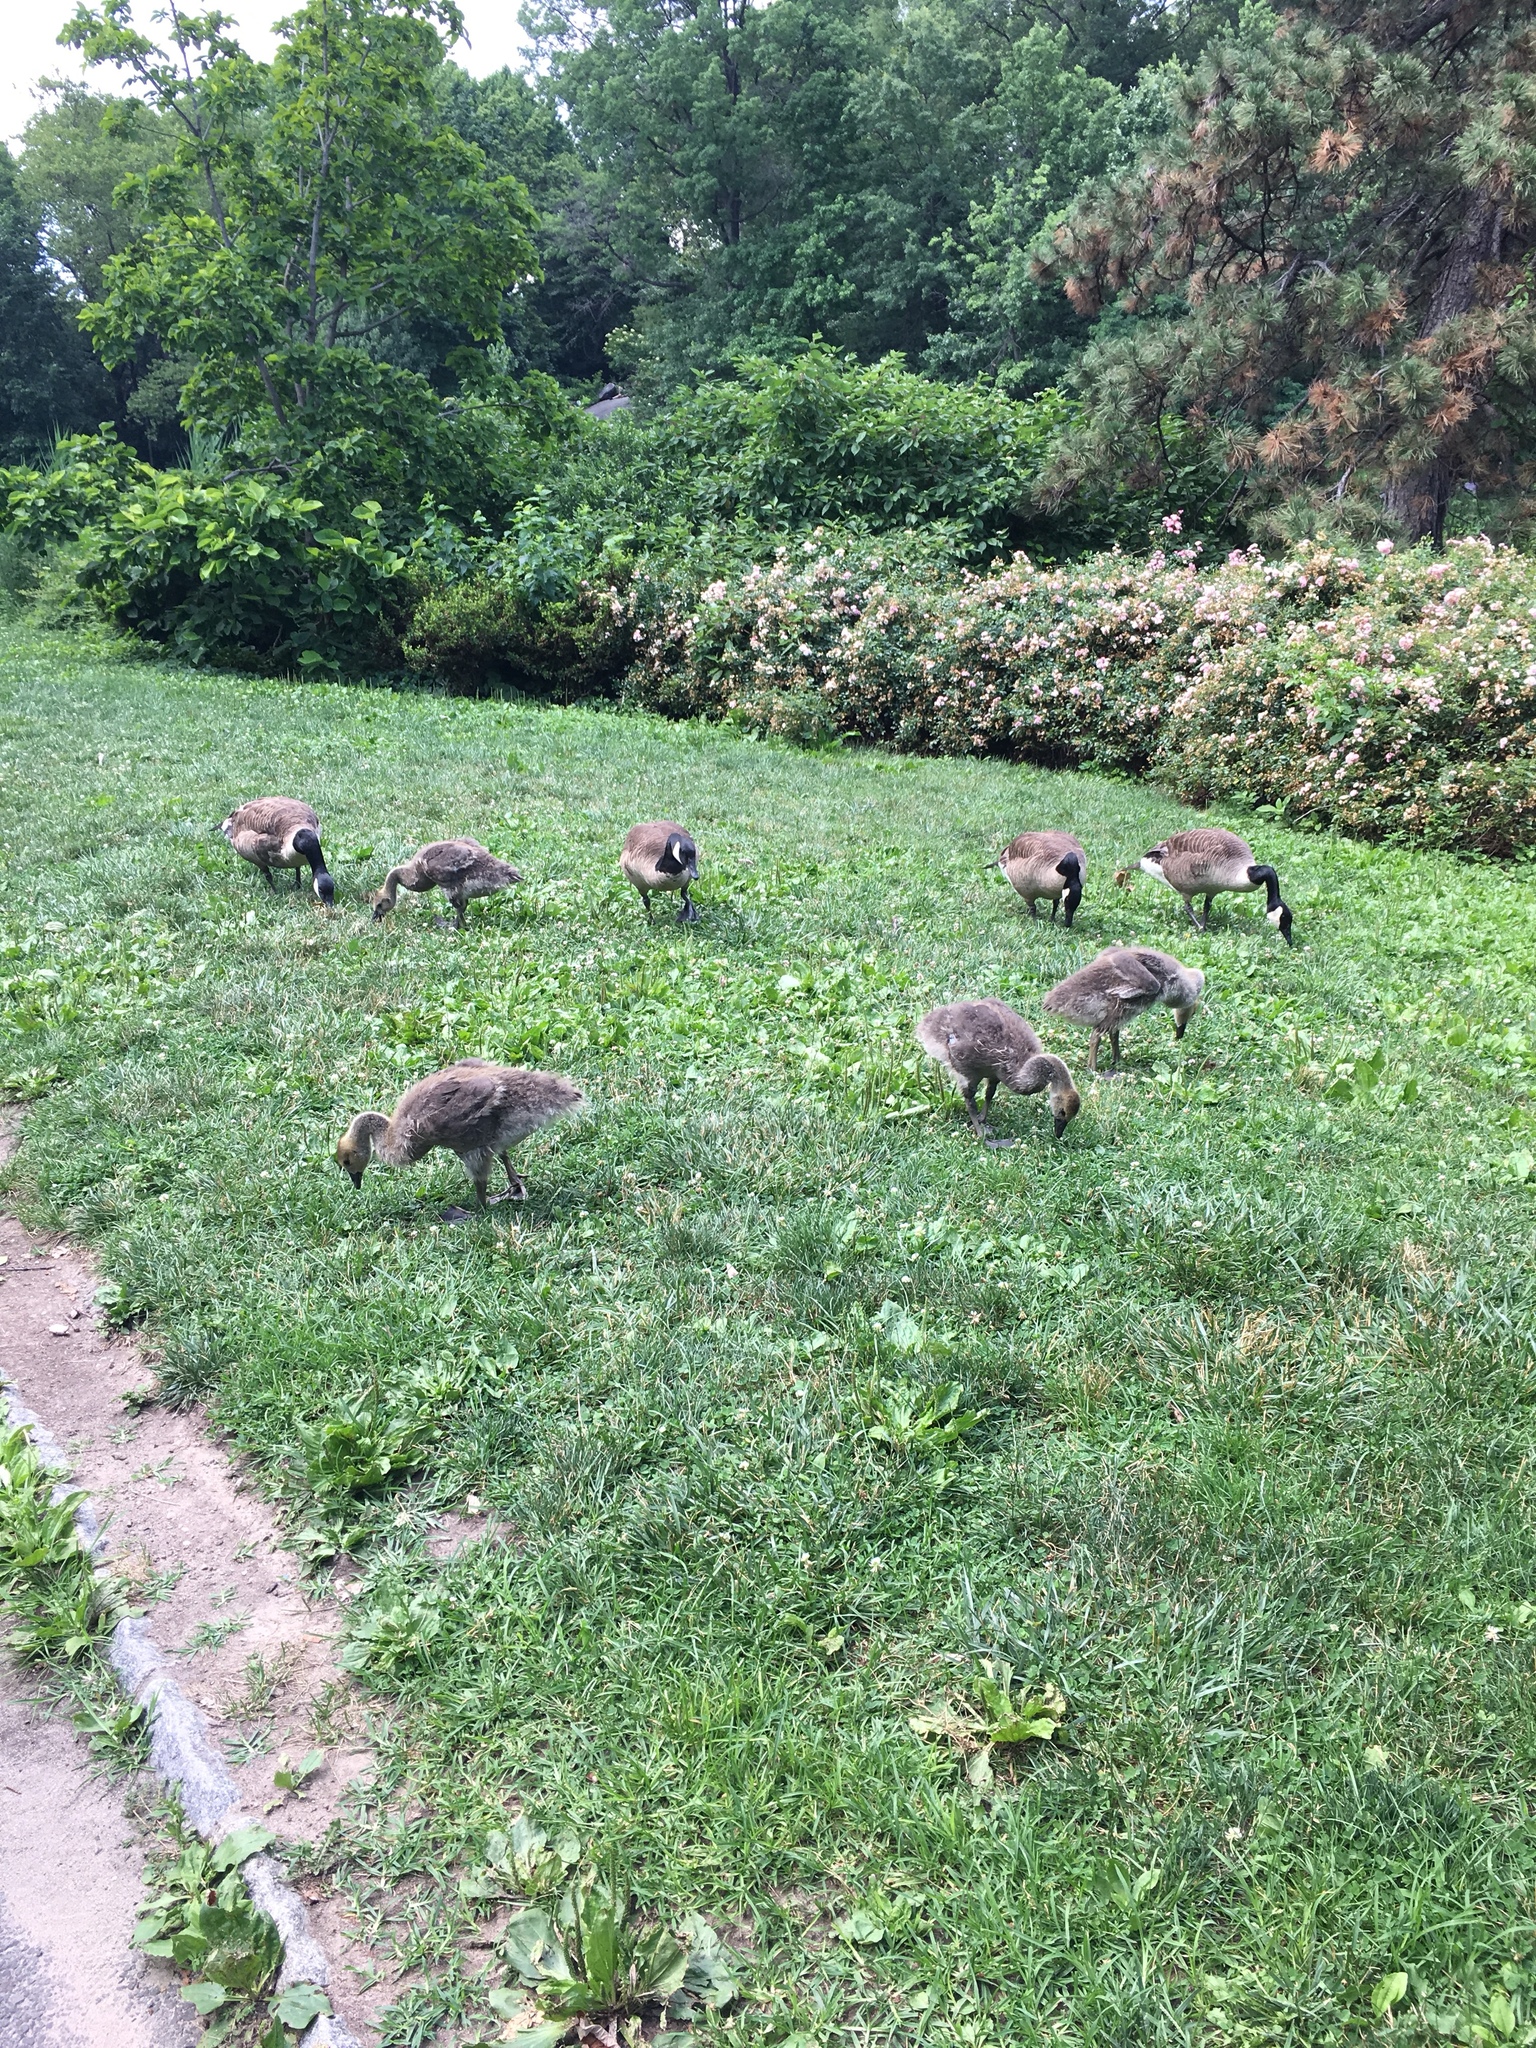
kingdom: Animalia
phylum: Chordata
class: Aves
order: Anseriformes
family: Anatidae
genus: Branta
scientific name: Branta canadensis
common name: Canada goose
